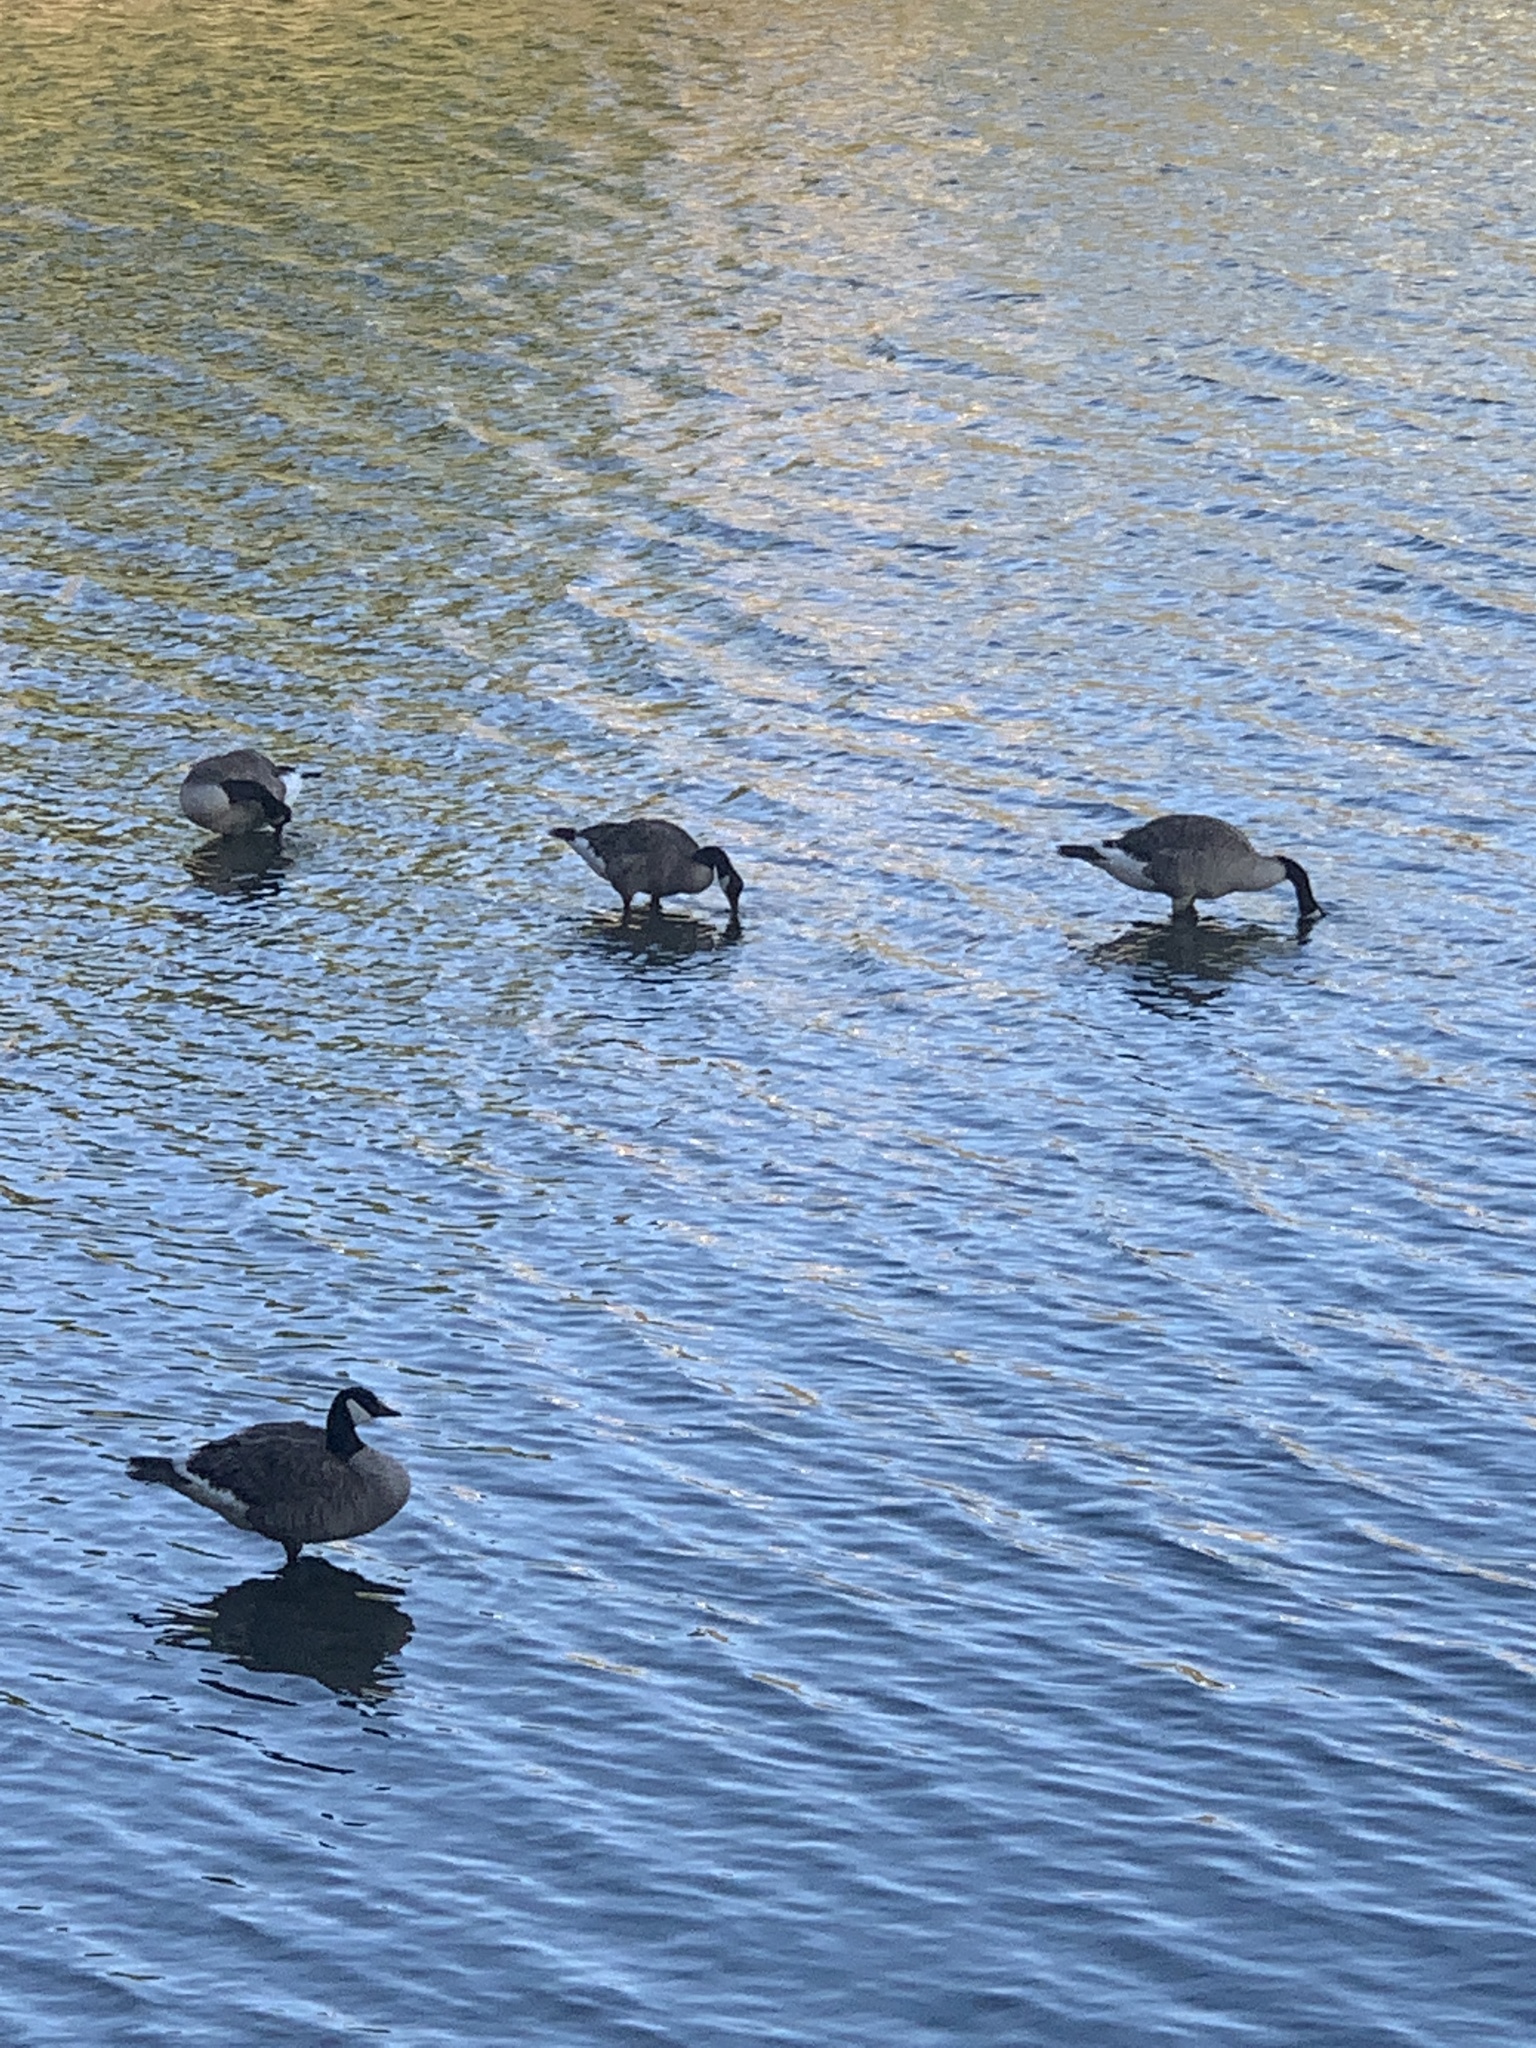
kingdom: Animalia
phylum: Chordata
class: Aves
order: Anseriformes
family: Anatidae
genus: Branta
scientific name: Branta canadensis
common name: Canada goose
